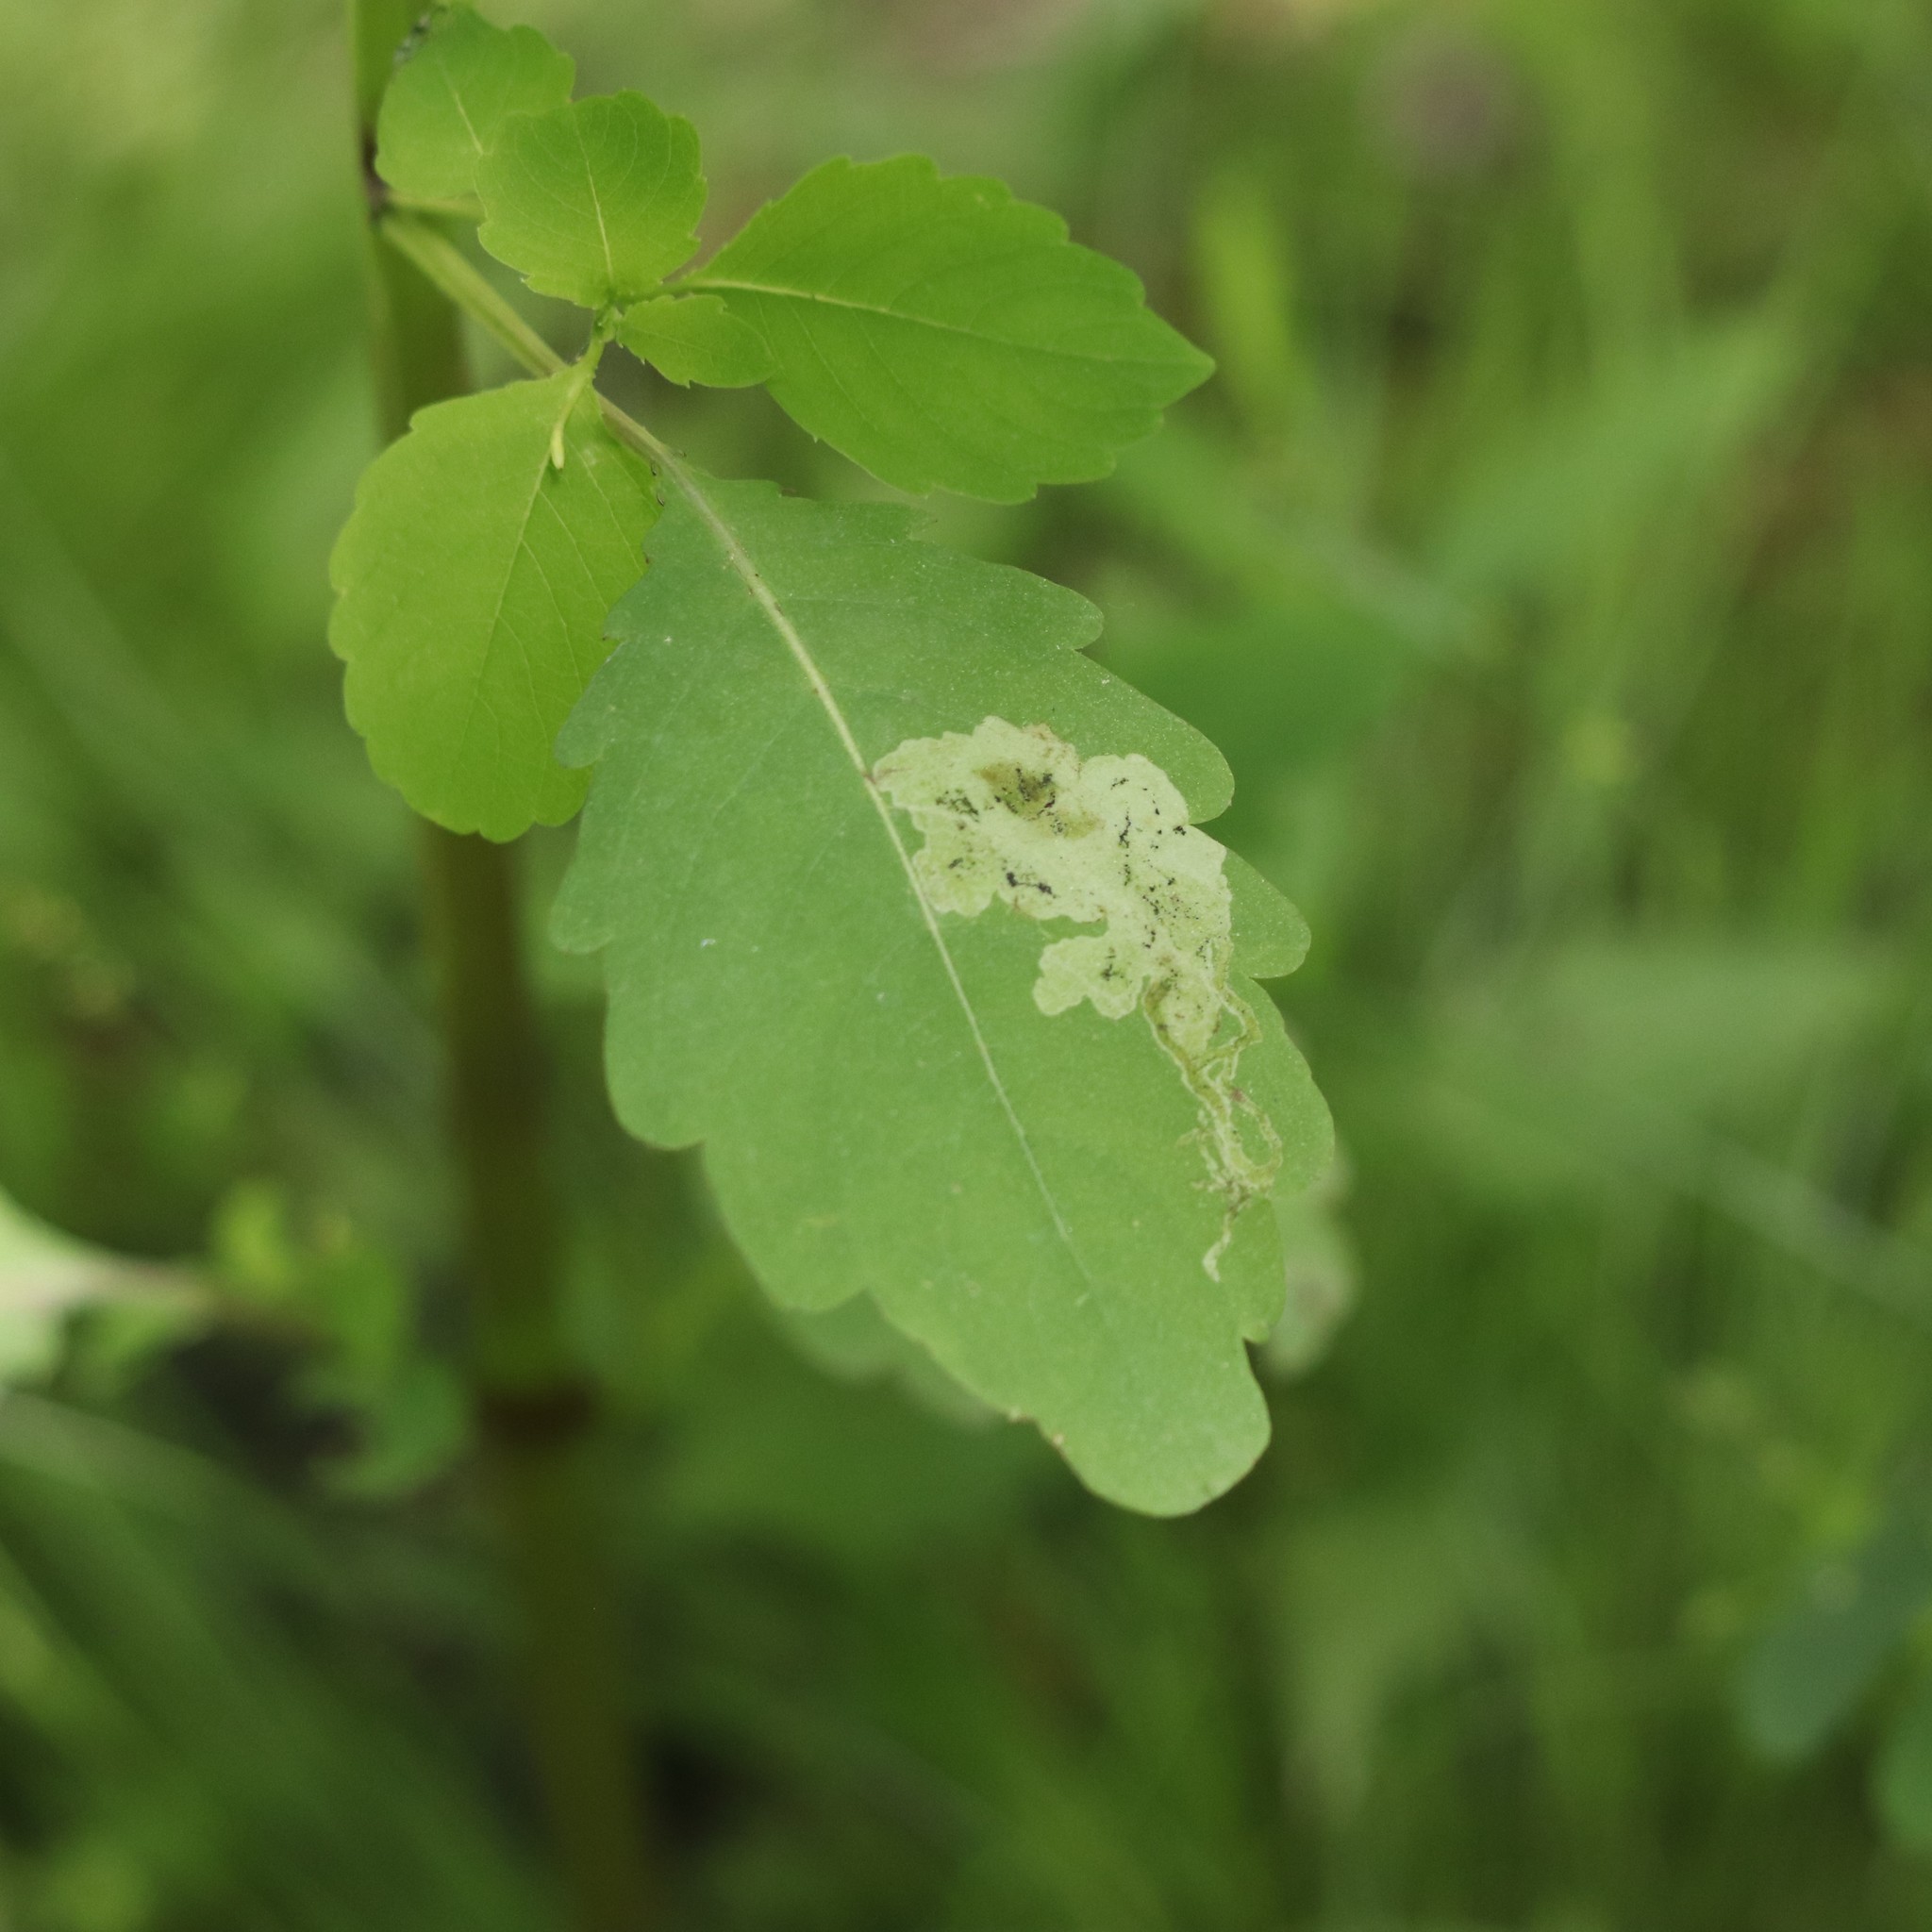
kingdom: Animalia
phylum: Arthropoda
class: Insecta
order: Diptera
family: Agromyzidae
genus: Phytoliriomyza
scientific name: Phytoliriomyza melampyga
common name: Jewelweed leaf-miner fly
